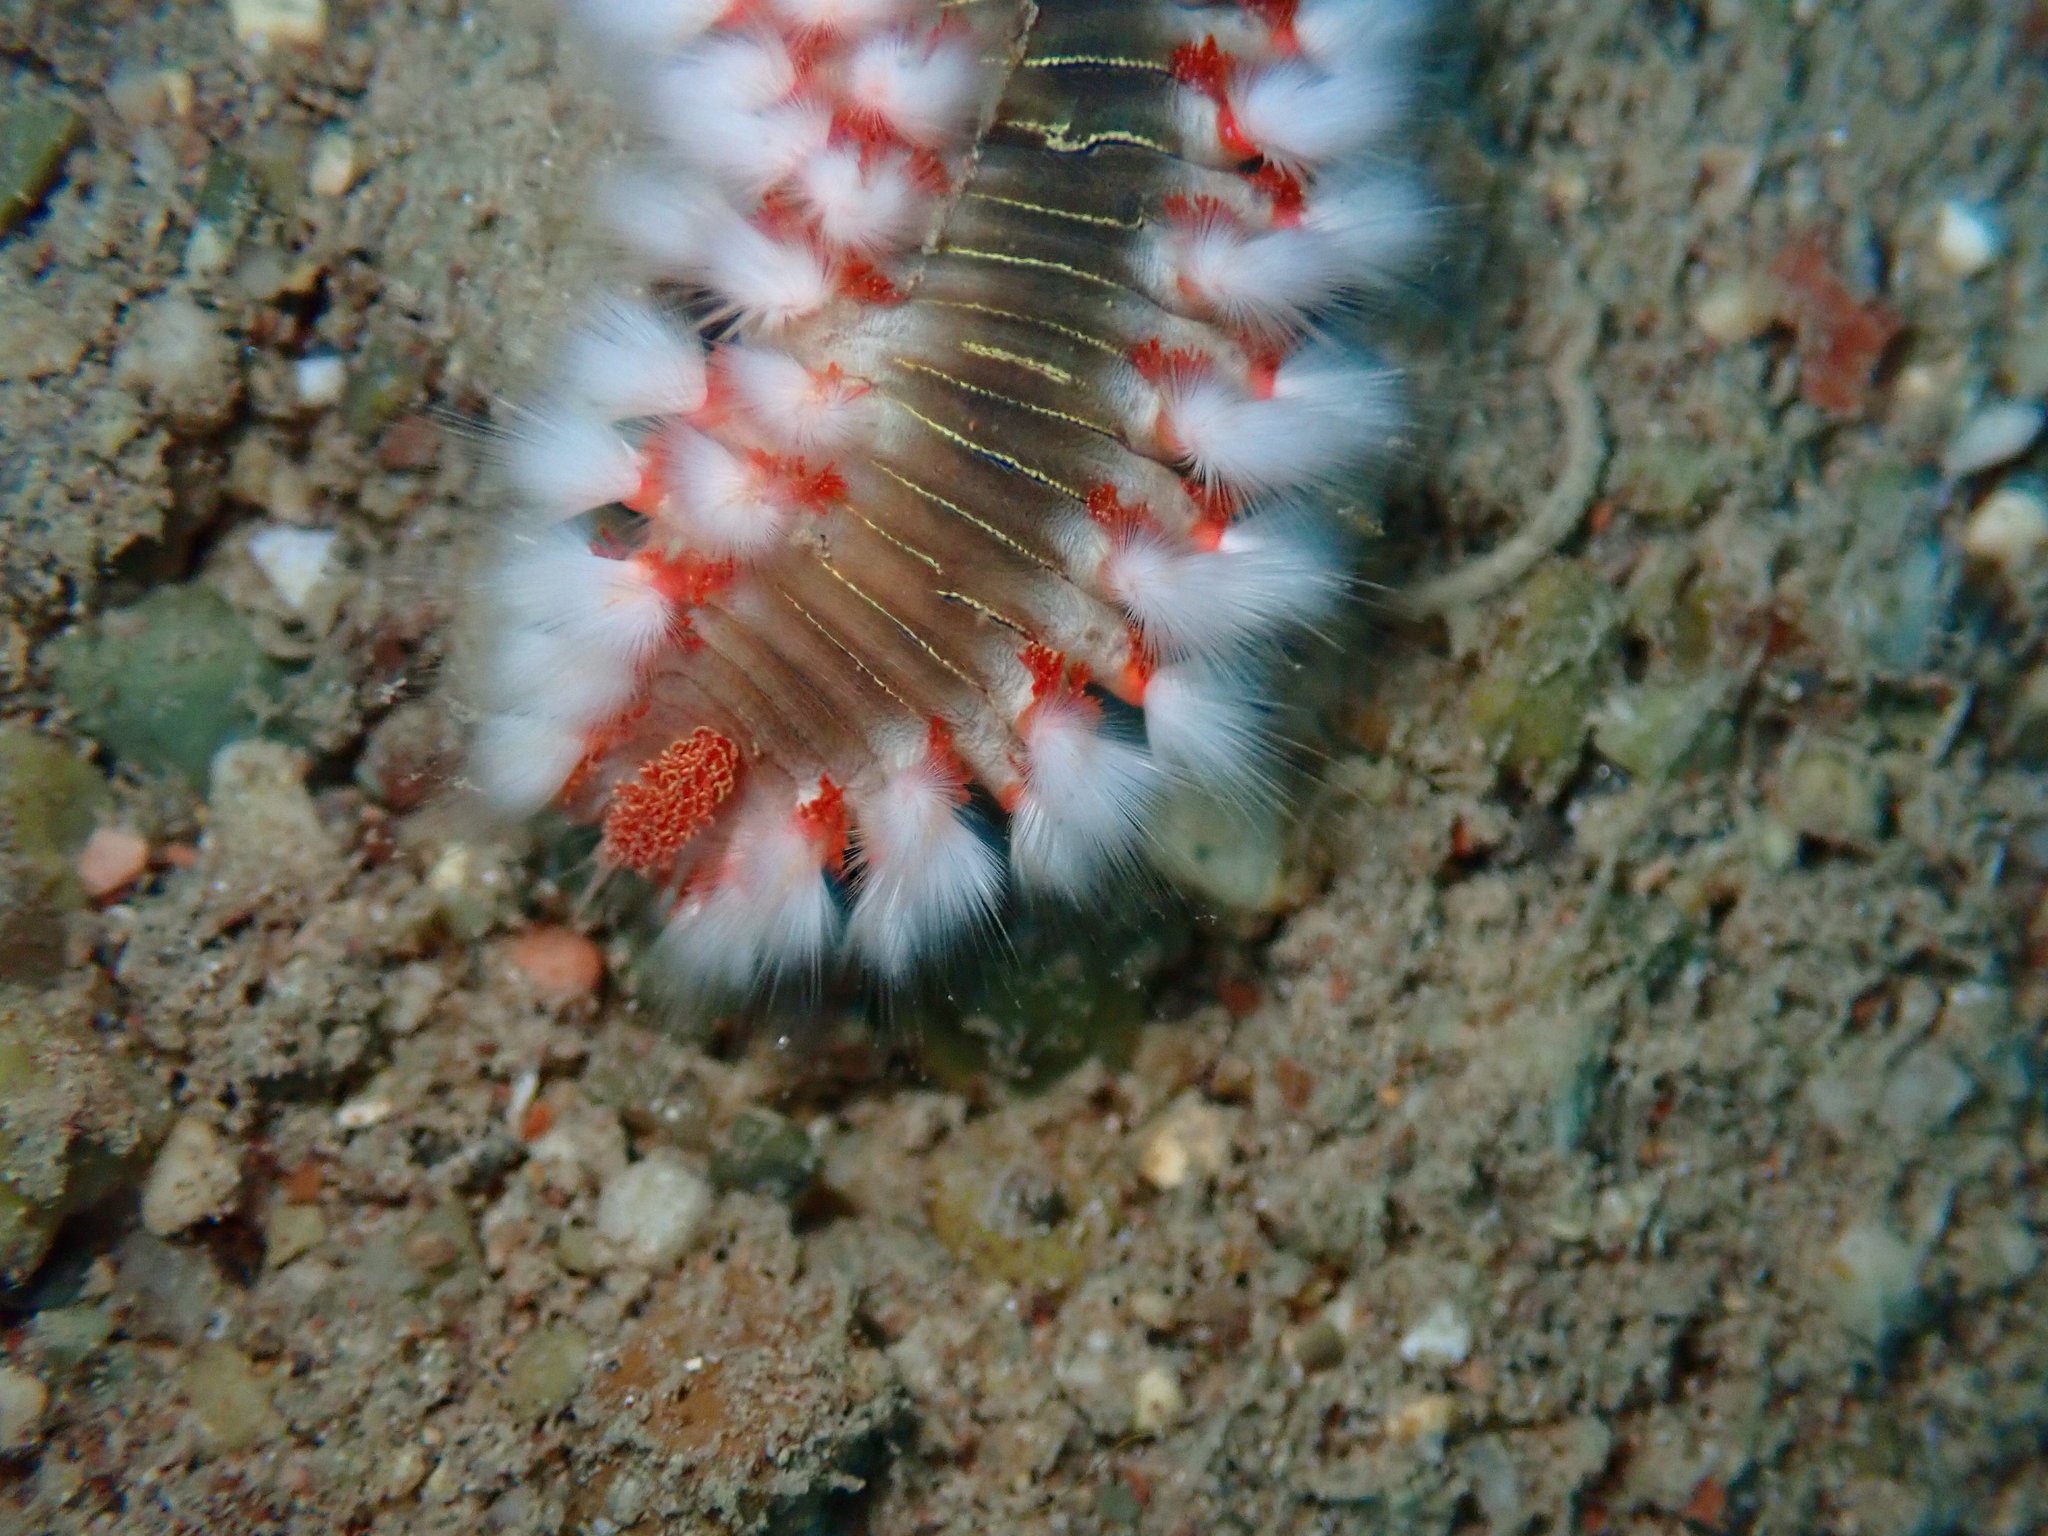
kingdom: Animalia
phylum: Annelida
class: Polychaeta
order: Amphinomida
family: Amphinomidae
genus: Hermodice
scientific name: Hermodice carunculata
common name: Bearded fireworm
